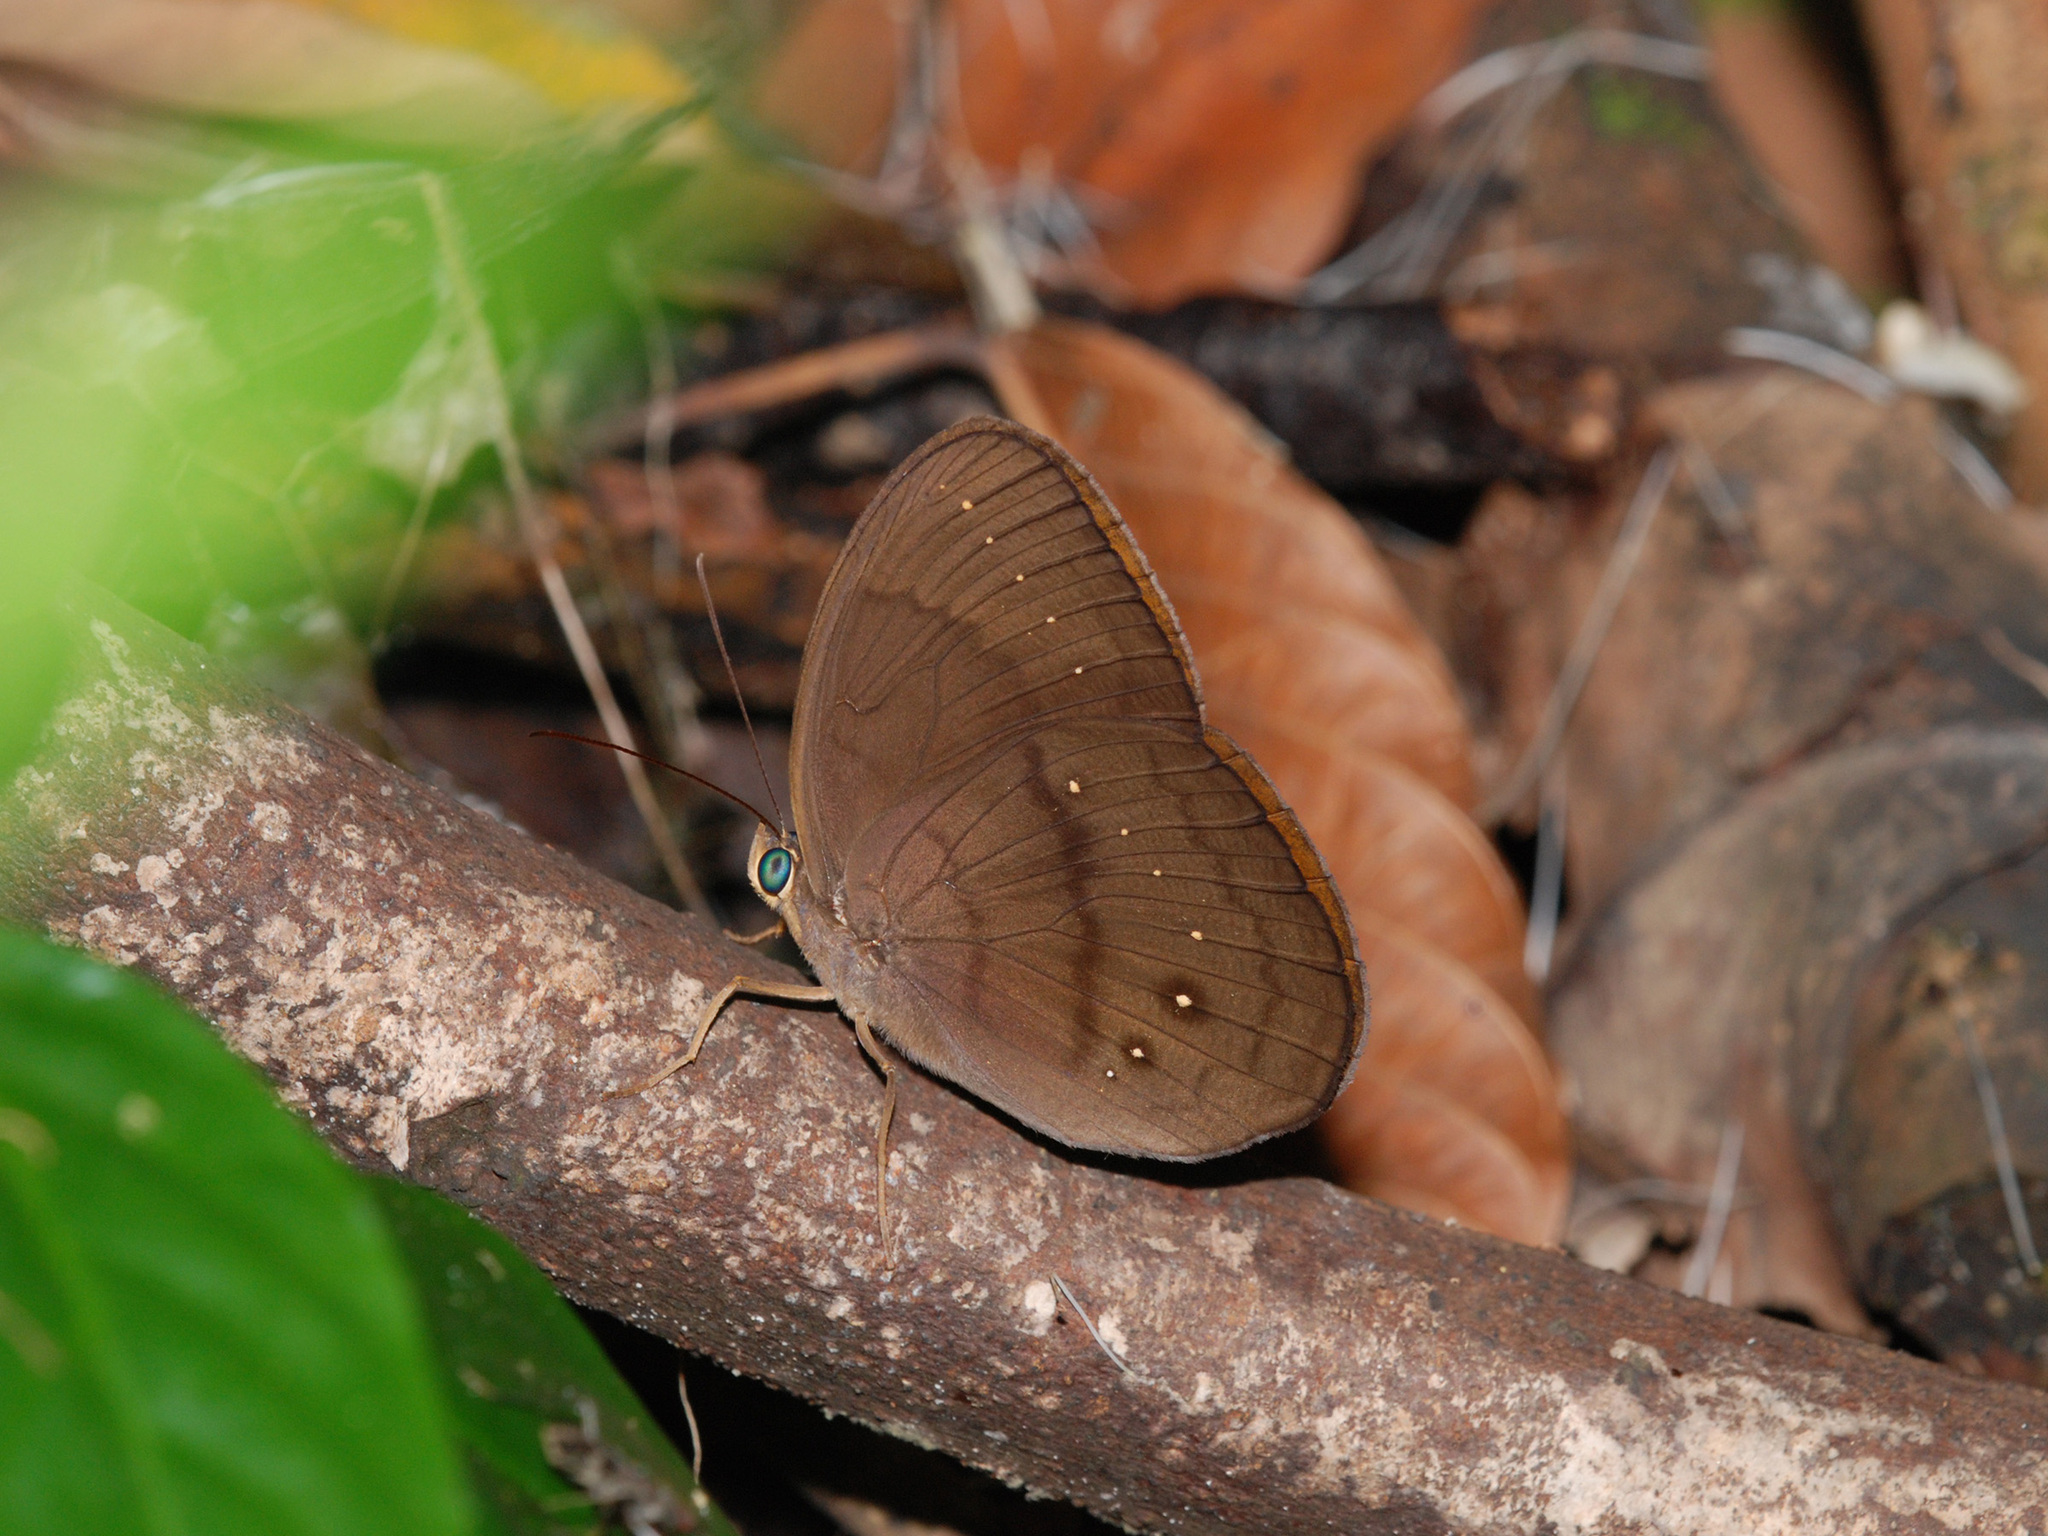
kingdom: Animalia
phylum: Arthropoda
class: Insecta
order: Lepidoptera
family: Nymphalidae
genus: Faunis
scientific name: Faunis canens
